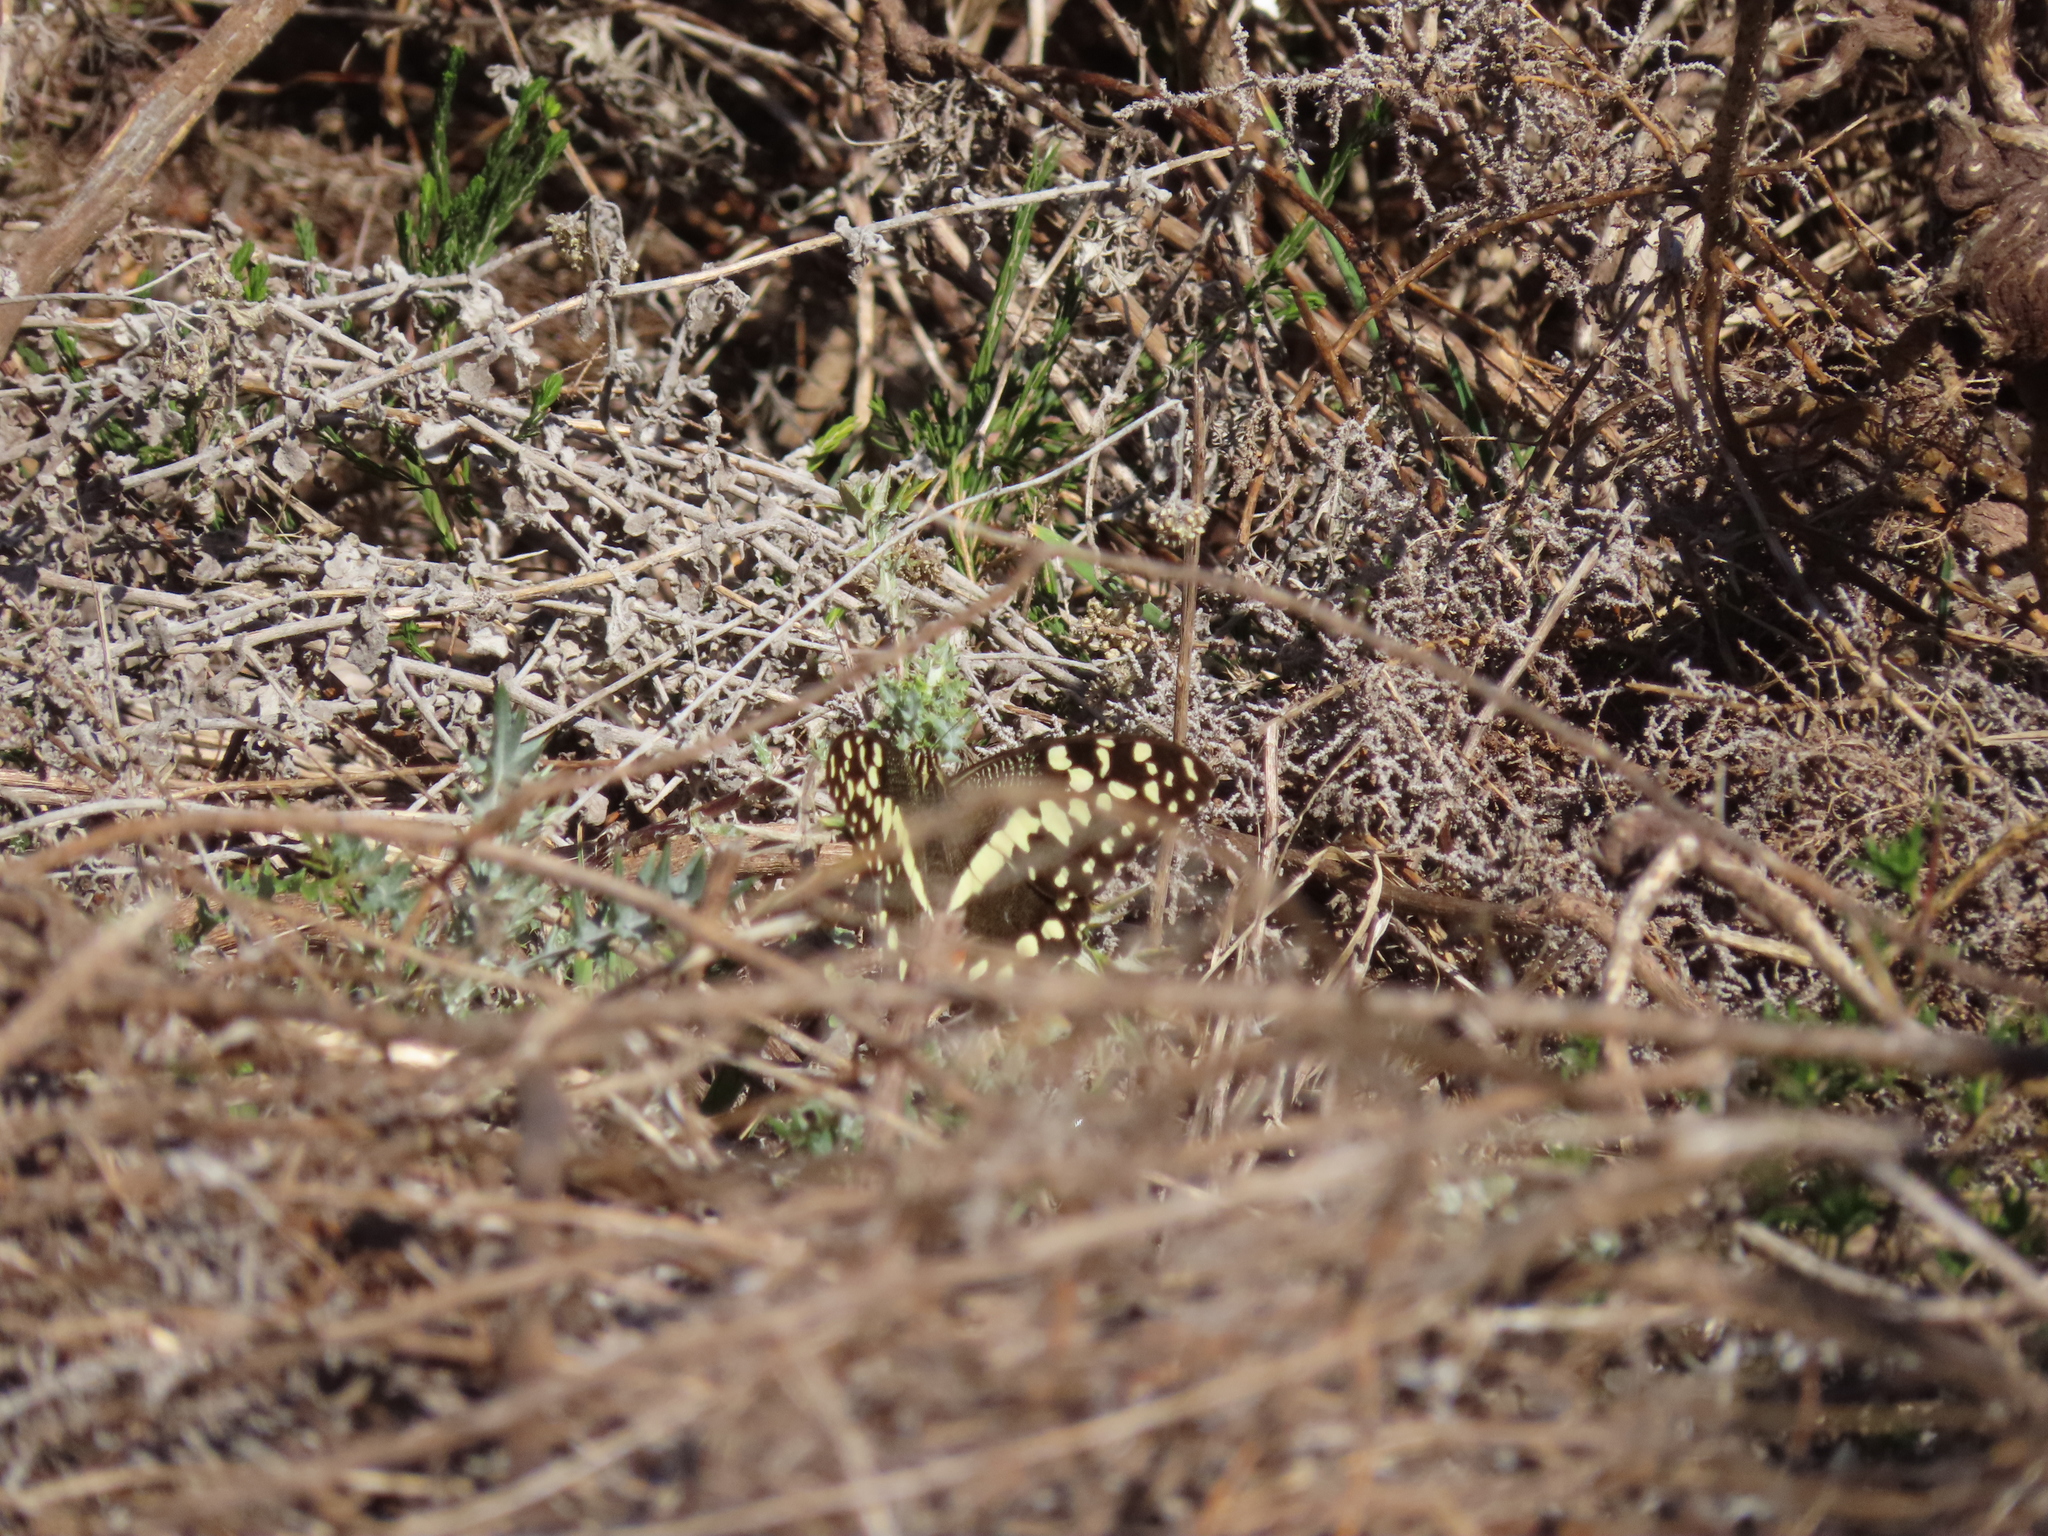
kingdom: Animalia
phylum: Arthropoda
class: Insecta
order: Lepidoptera
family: Papilionidae
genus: Papilio
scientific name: Papilio demodocus
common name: Christmas butterfly
